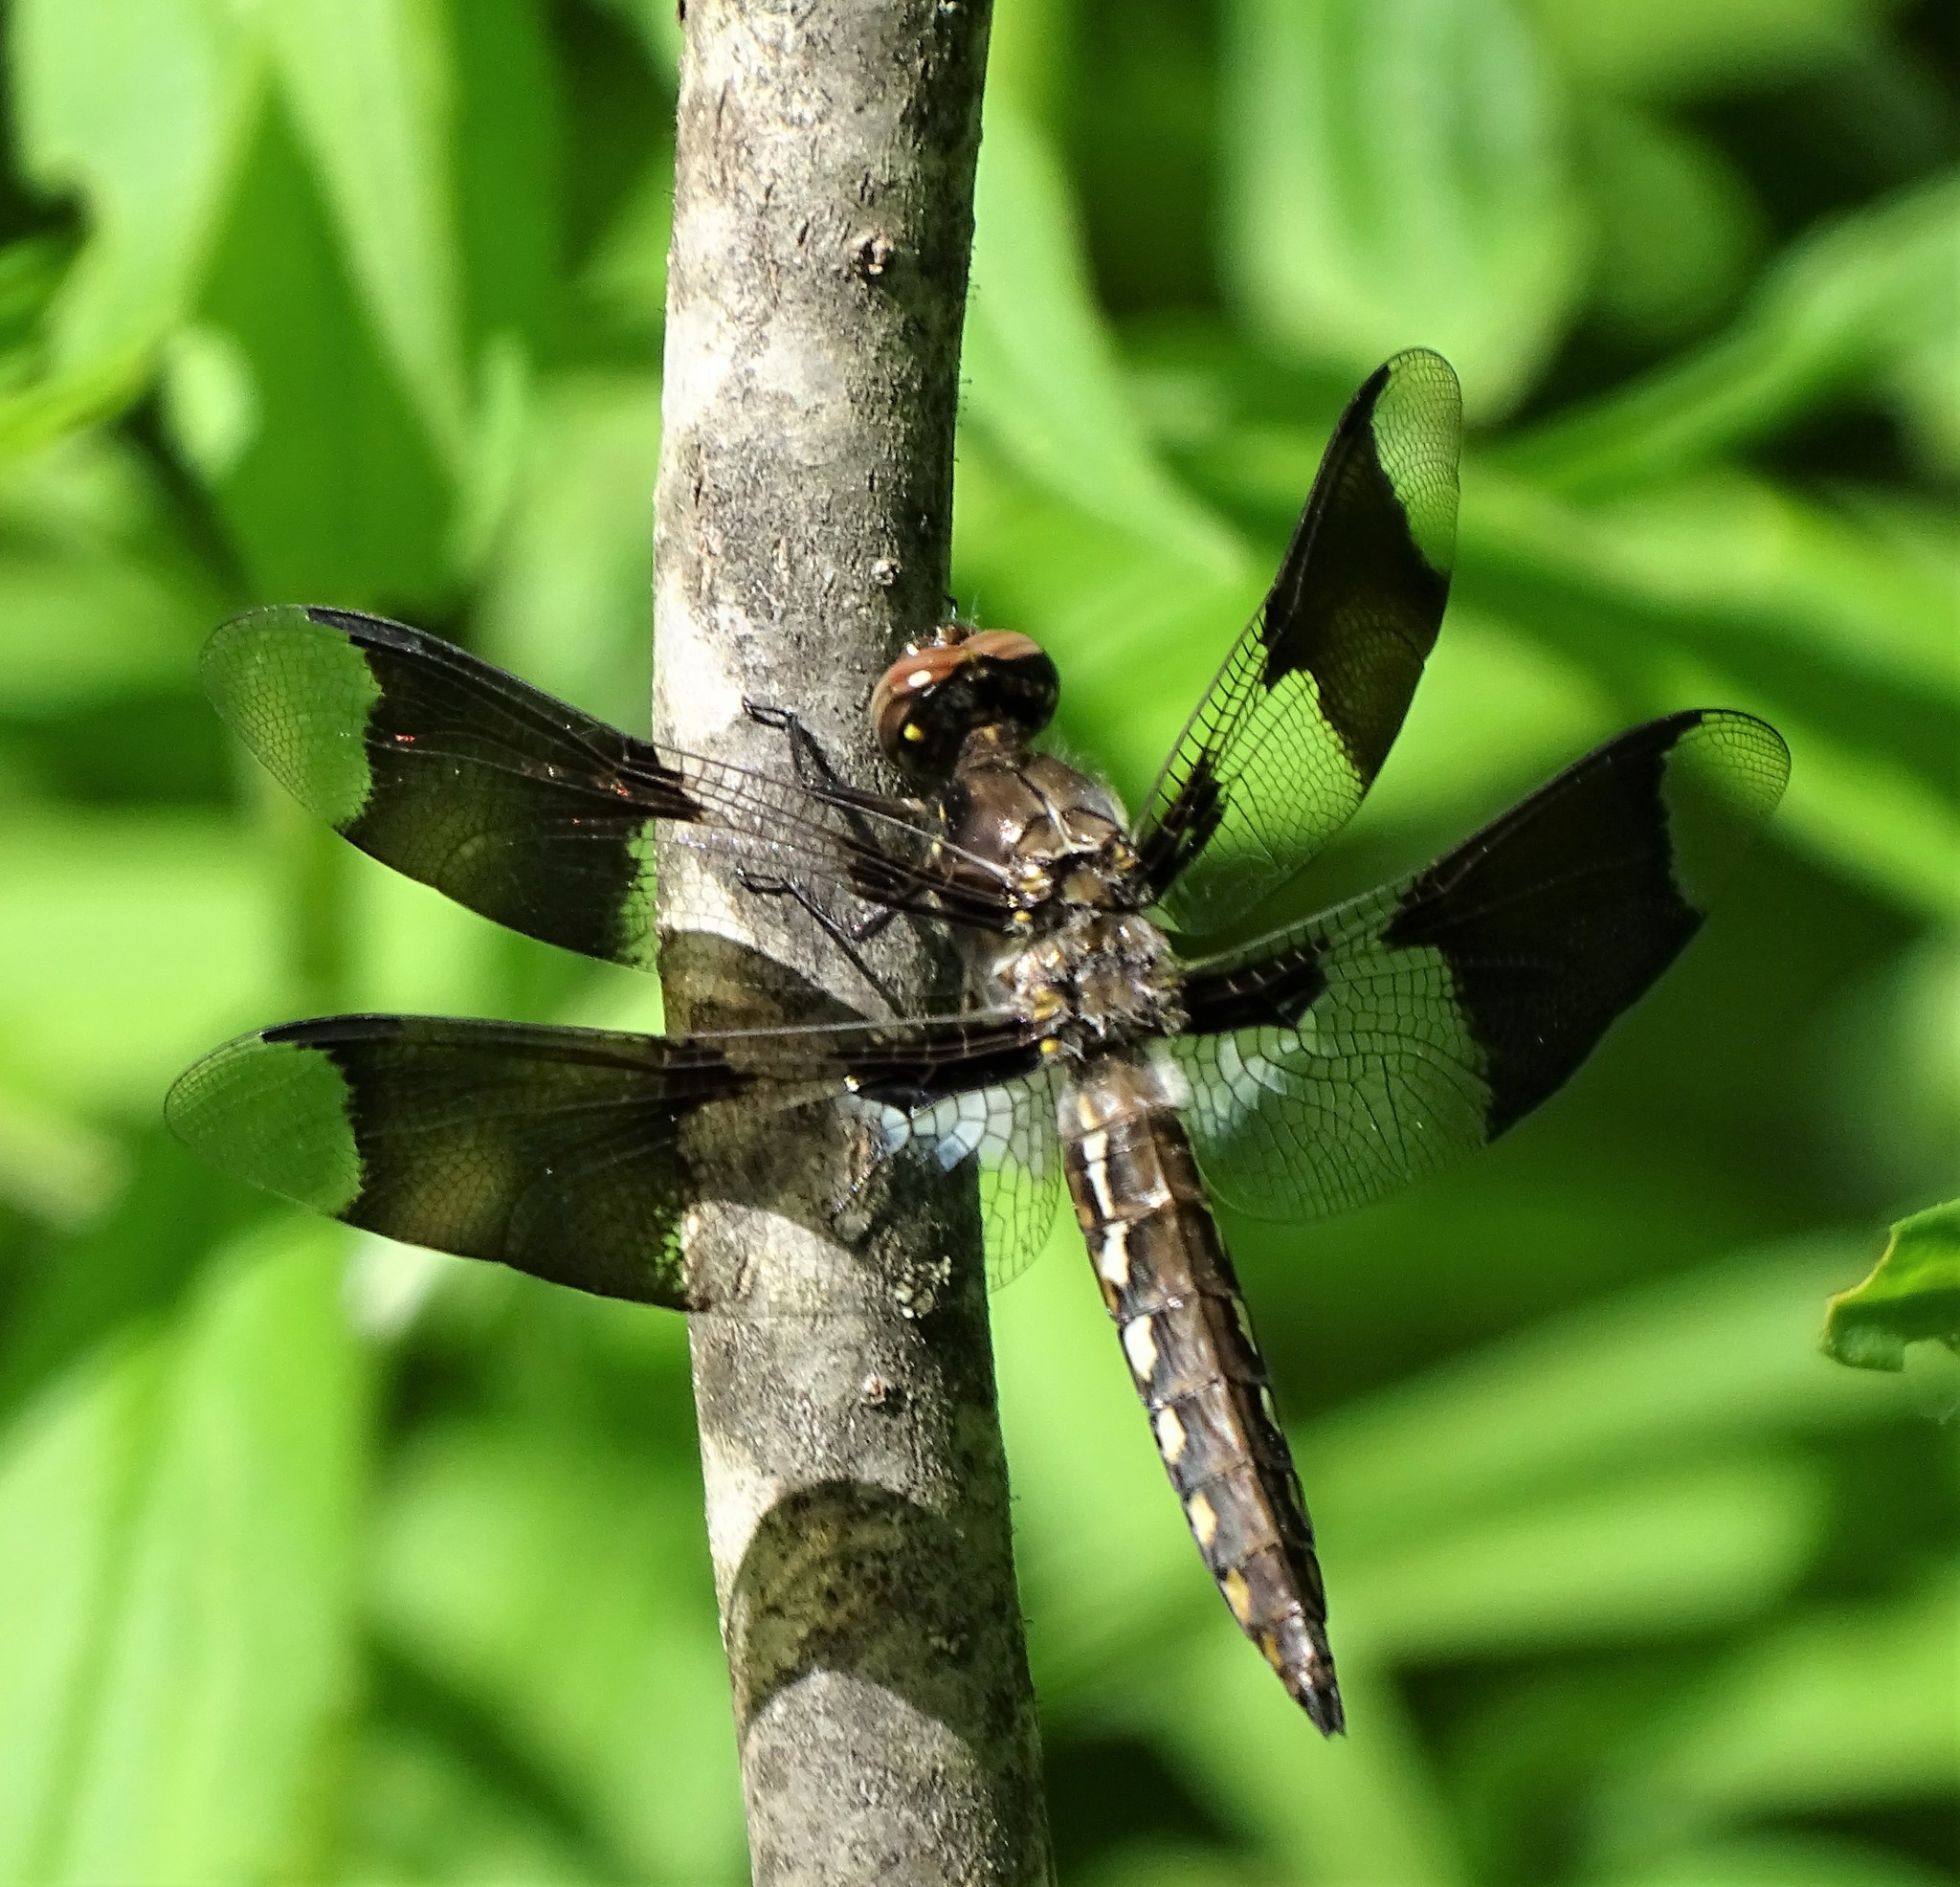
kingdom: Animalia
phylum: Arthropoda
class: Insecta
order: Odonata
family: Libellulidae
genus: Plathemis
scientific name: Plathemis lydia
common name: Common whitetail
